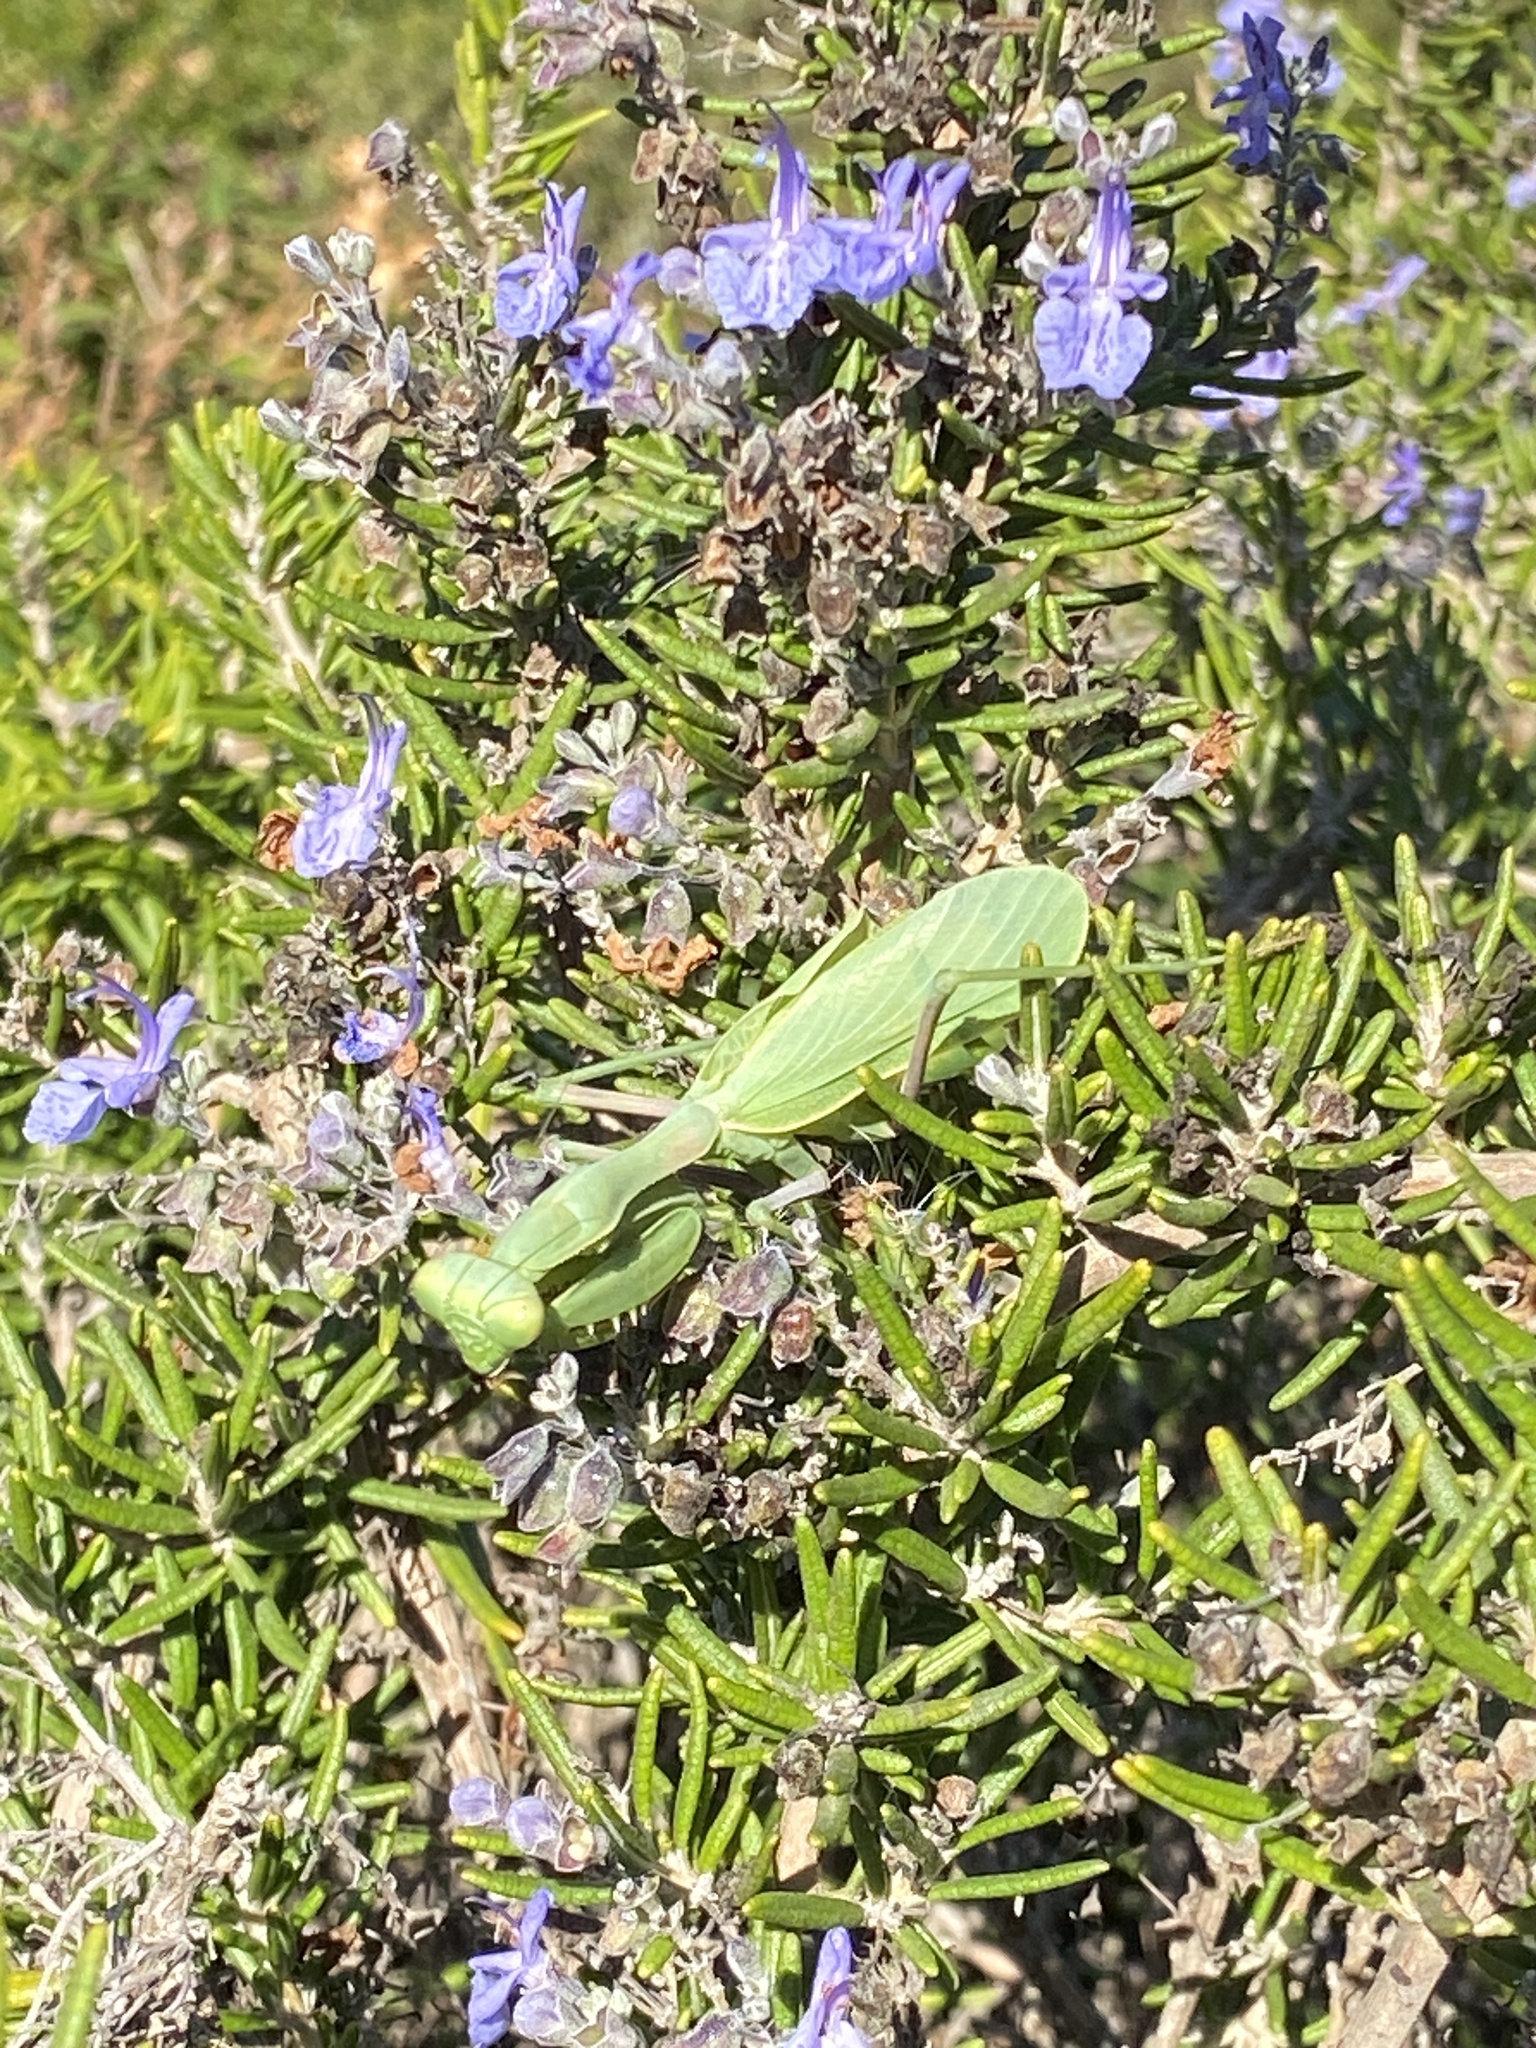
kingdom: Animalia
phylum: Arthropoda
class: Insecta
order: Mantodea
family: Mantidae
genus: Stagmomantis
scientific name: Stagmomantis limbata
